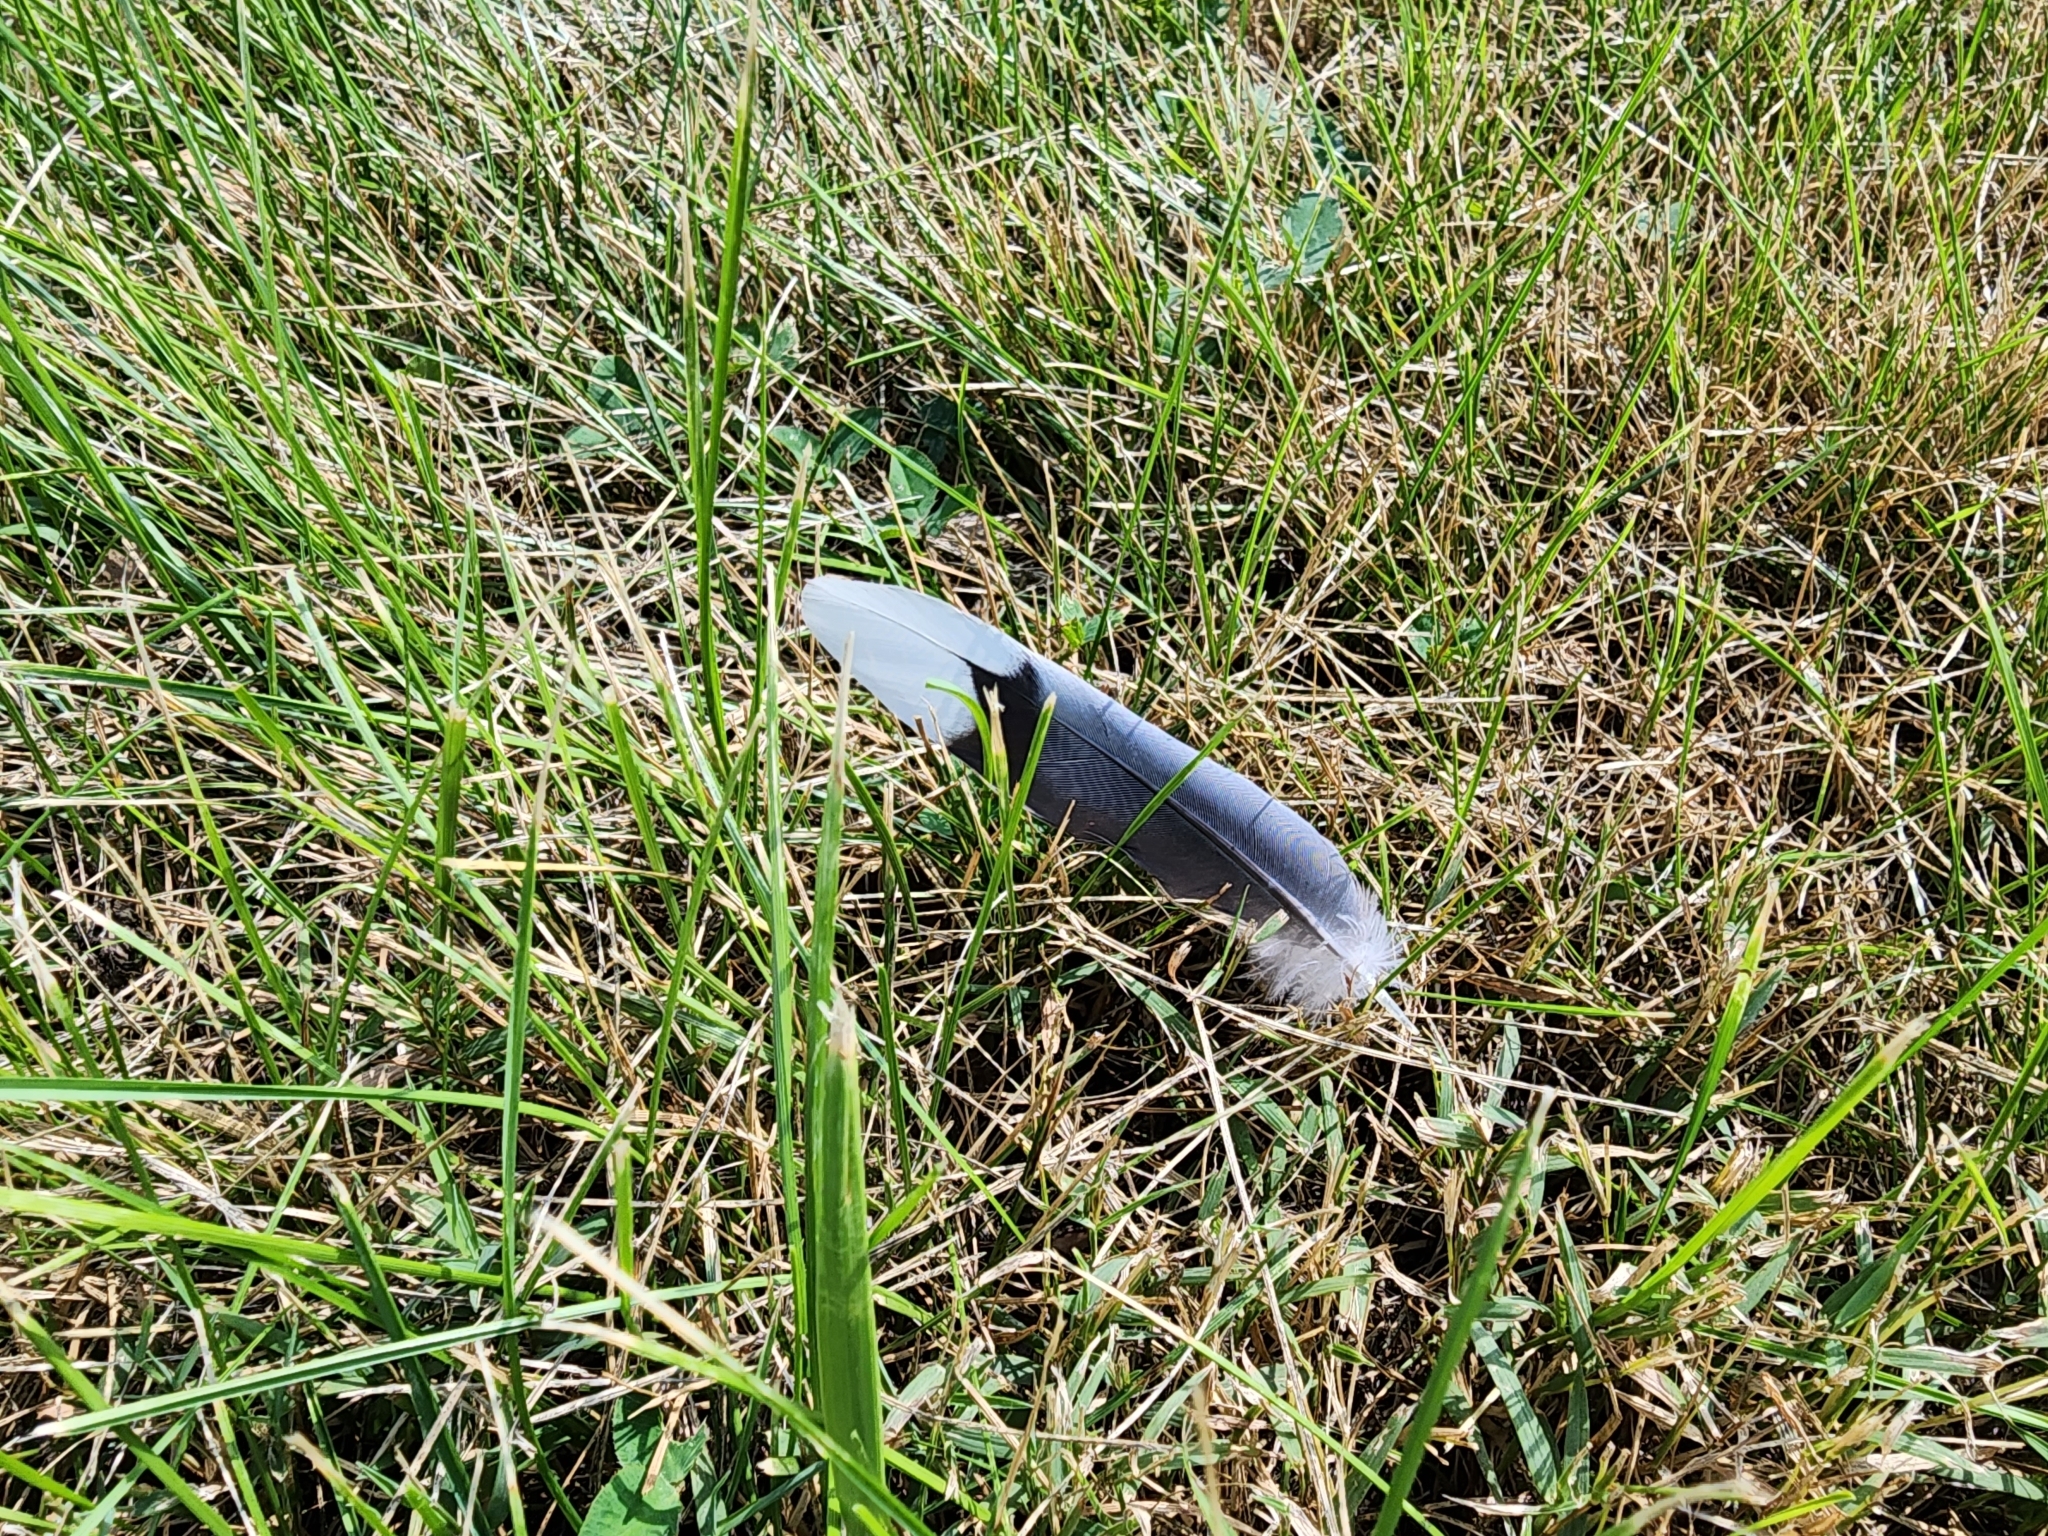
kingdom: Animalia
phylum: Chordata
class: Aves
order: Columbiformes
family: Columbidae
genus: Zenaida
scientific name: Zenaida macroura
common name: Mourning dove
